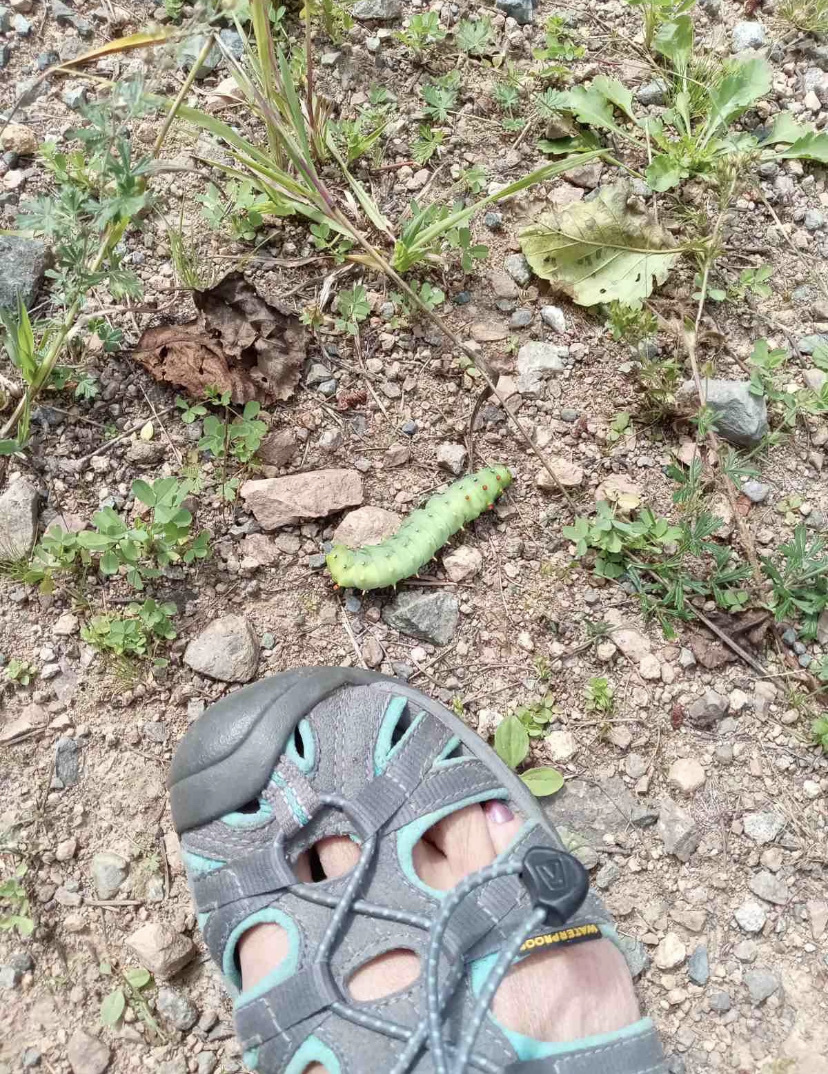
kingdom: Animalia
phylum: Arthropoda
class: Insecta
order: Lepidoptera
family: Saturniidae
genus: Hyalophora
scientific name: Hyalophora euryalus
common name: Ceanothus silkmoth
